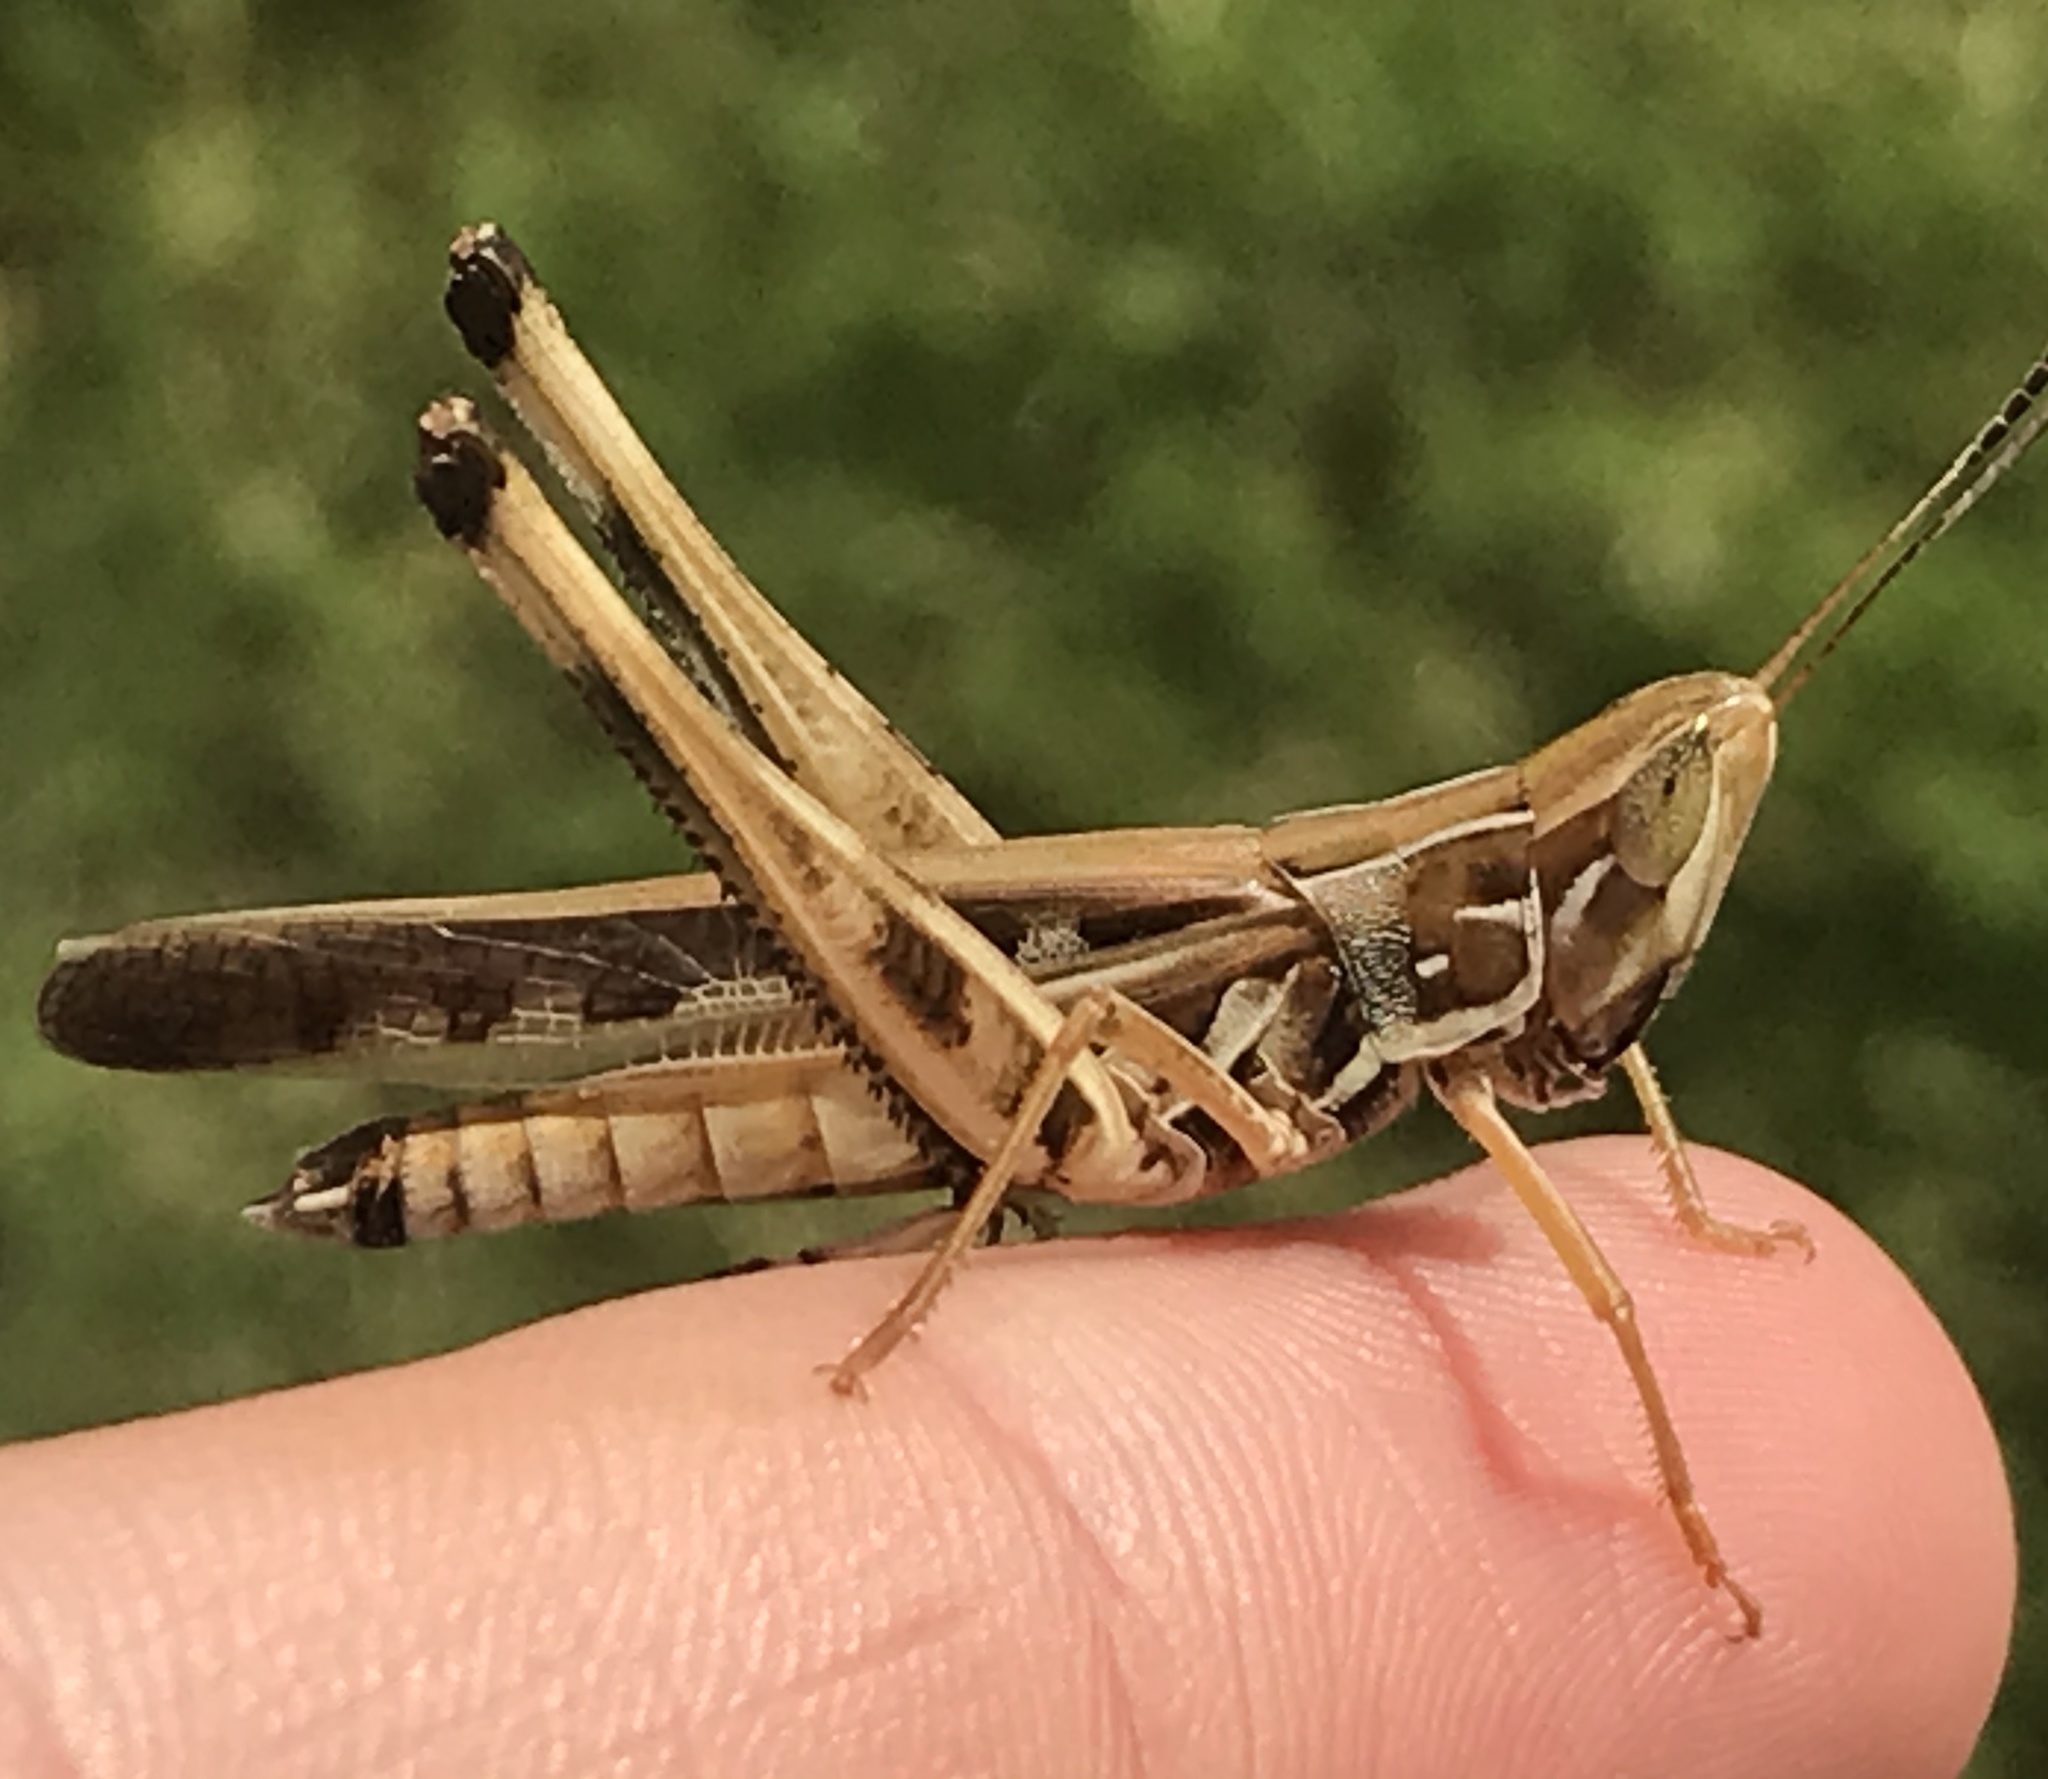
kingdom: Animalia
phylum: Arthropoda
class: Insecta
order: Orthoptera
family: Acrididae
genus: Syrbula
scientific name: Syrbula admirabilis
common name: Handsome grasshopper
